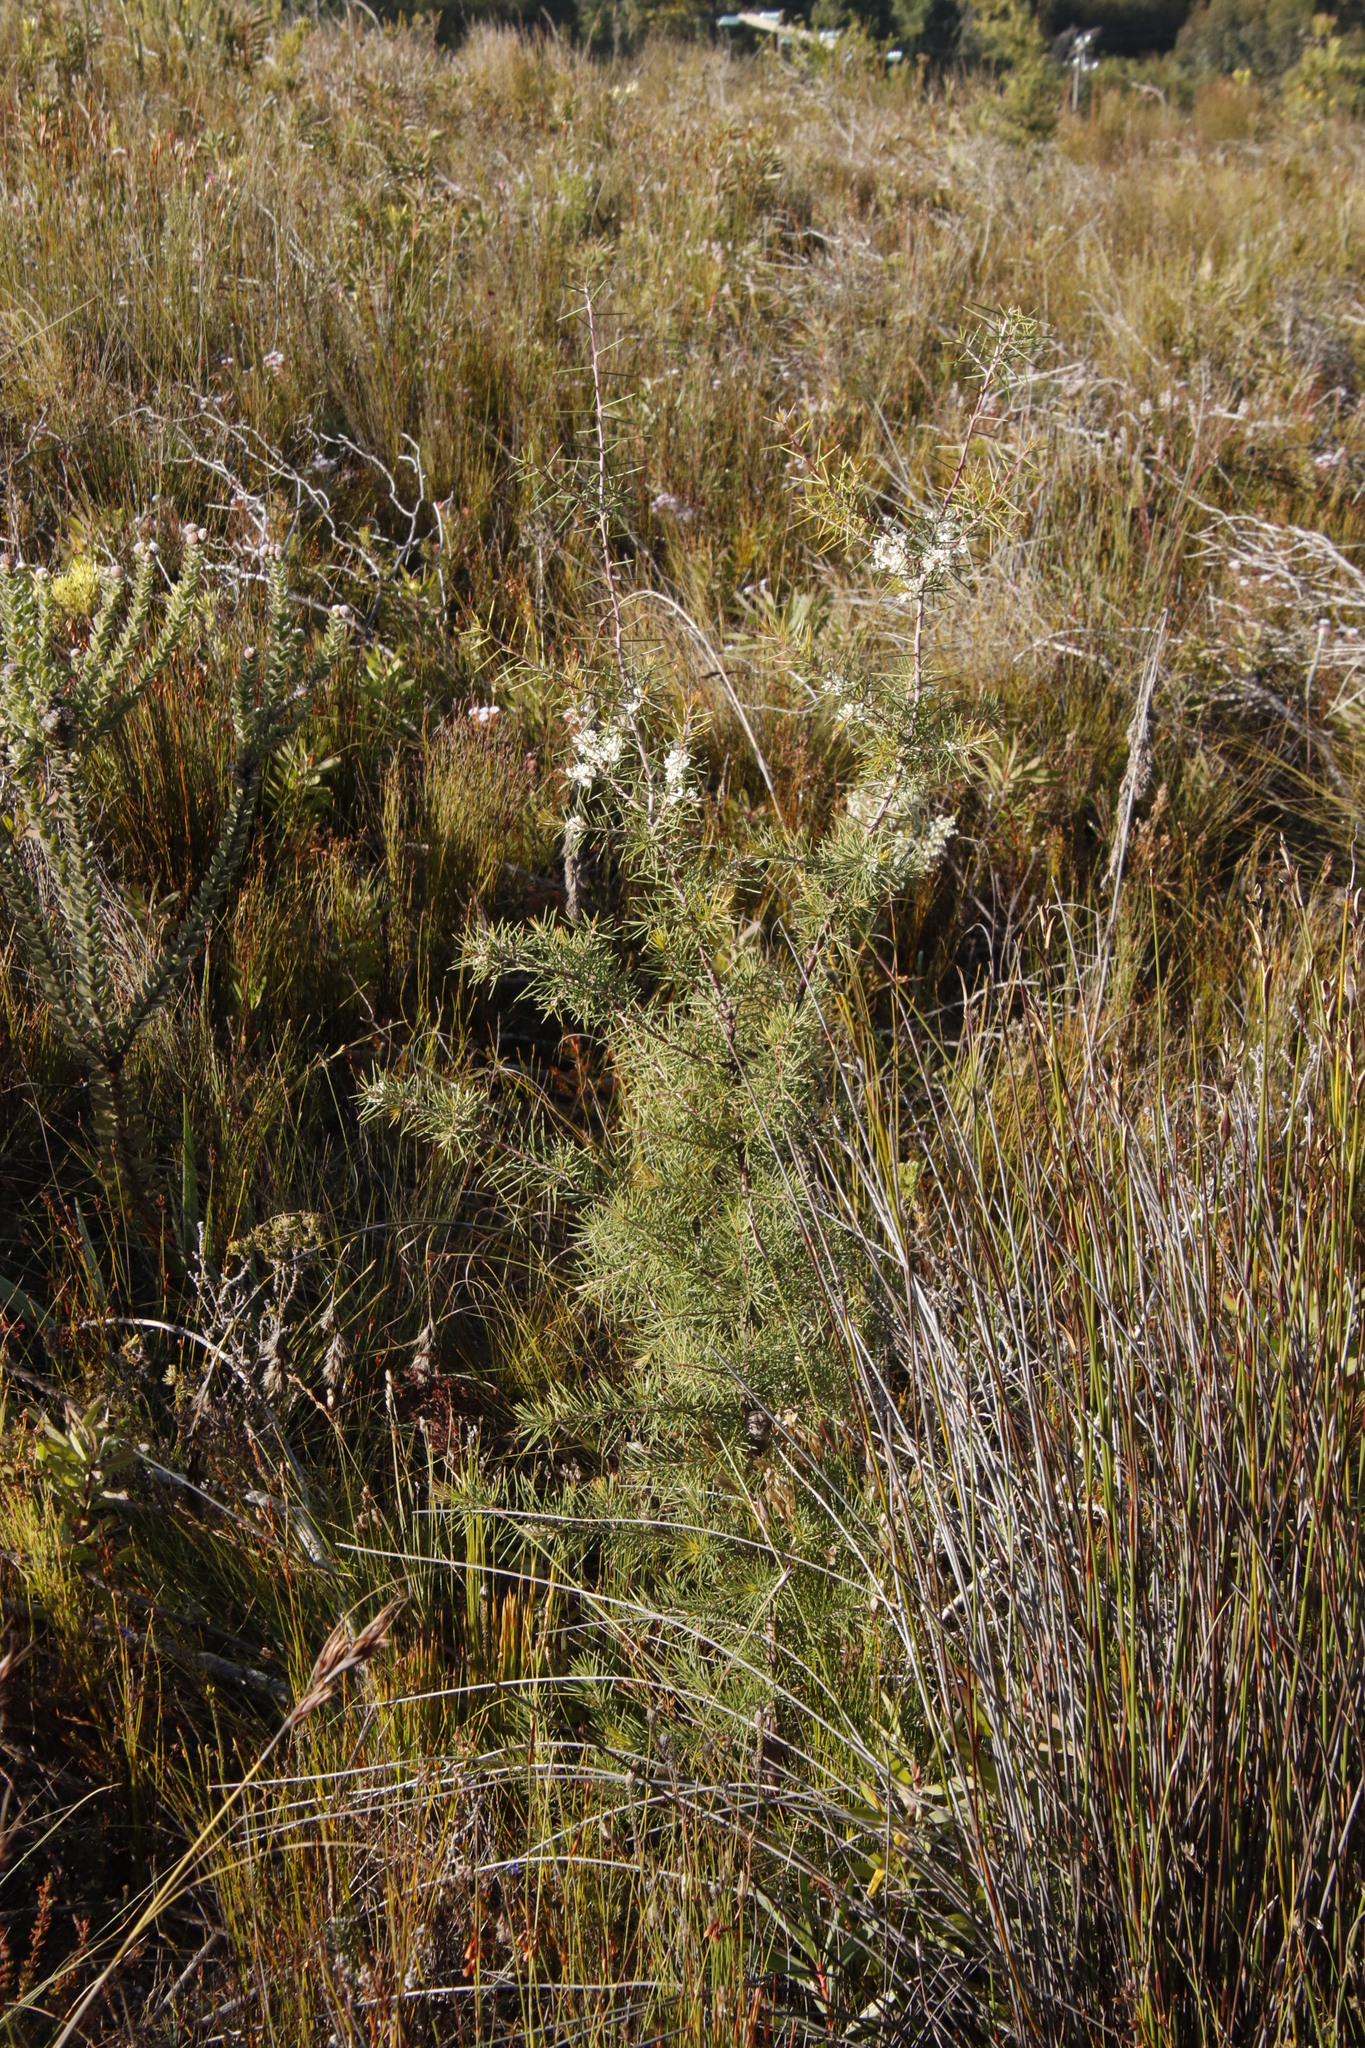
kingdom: Plantae
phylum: Tracheophyta
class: Magnoliopsida
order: Proteales
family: Proteaceae
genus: Hakea
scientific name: Hakea sericea
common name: Needle bush
